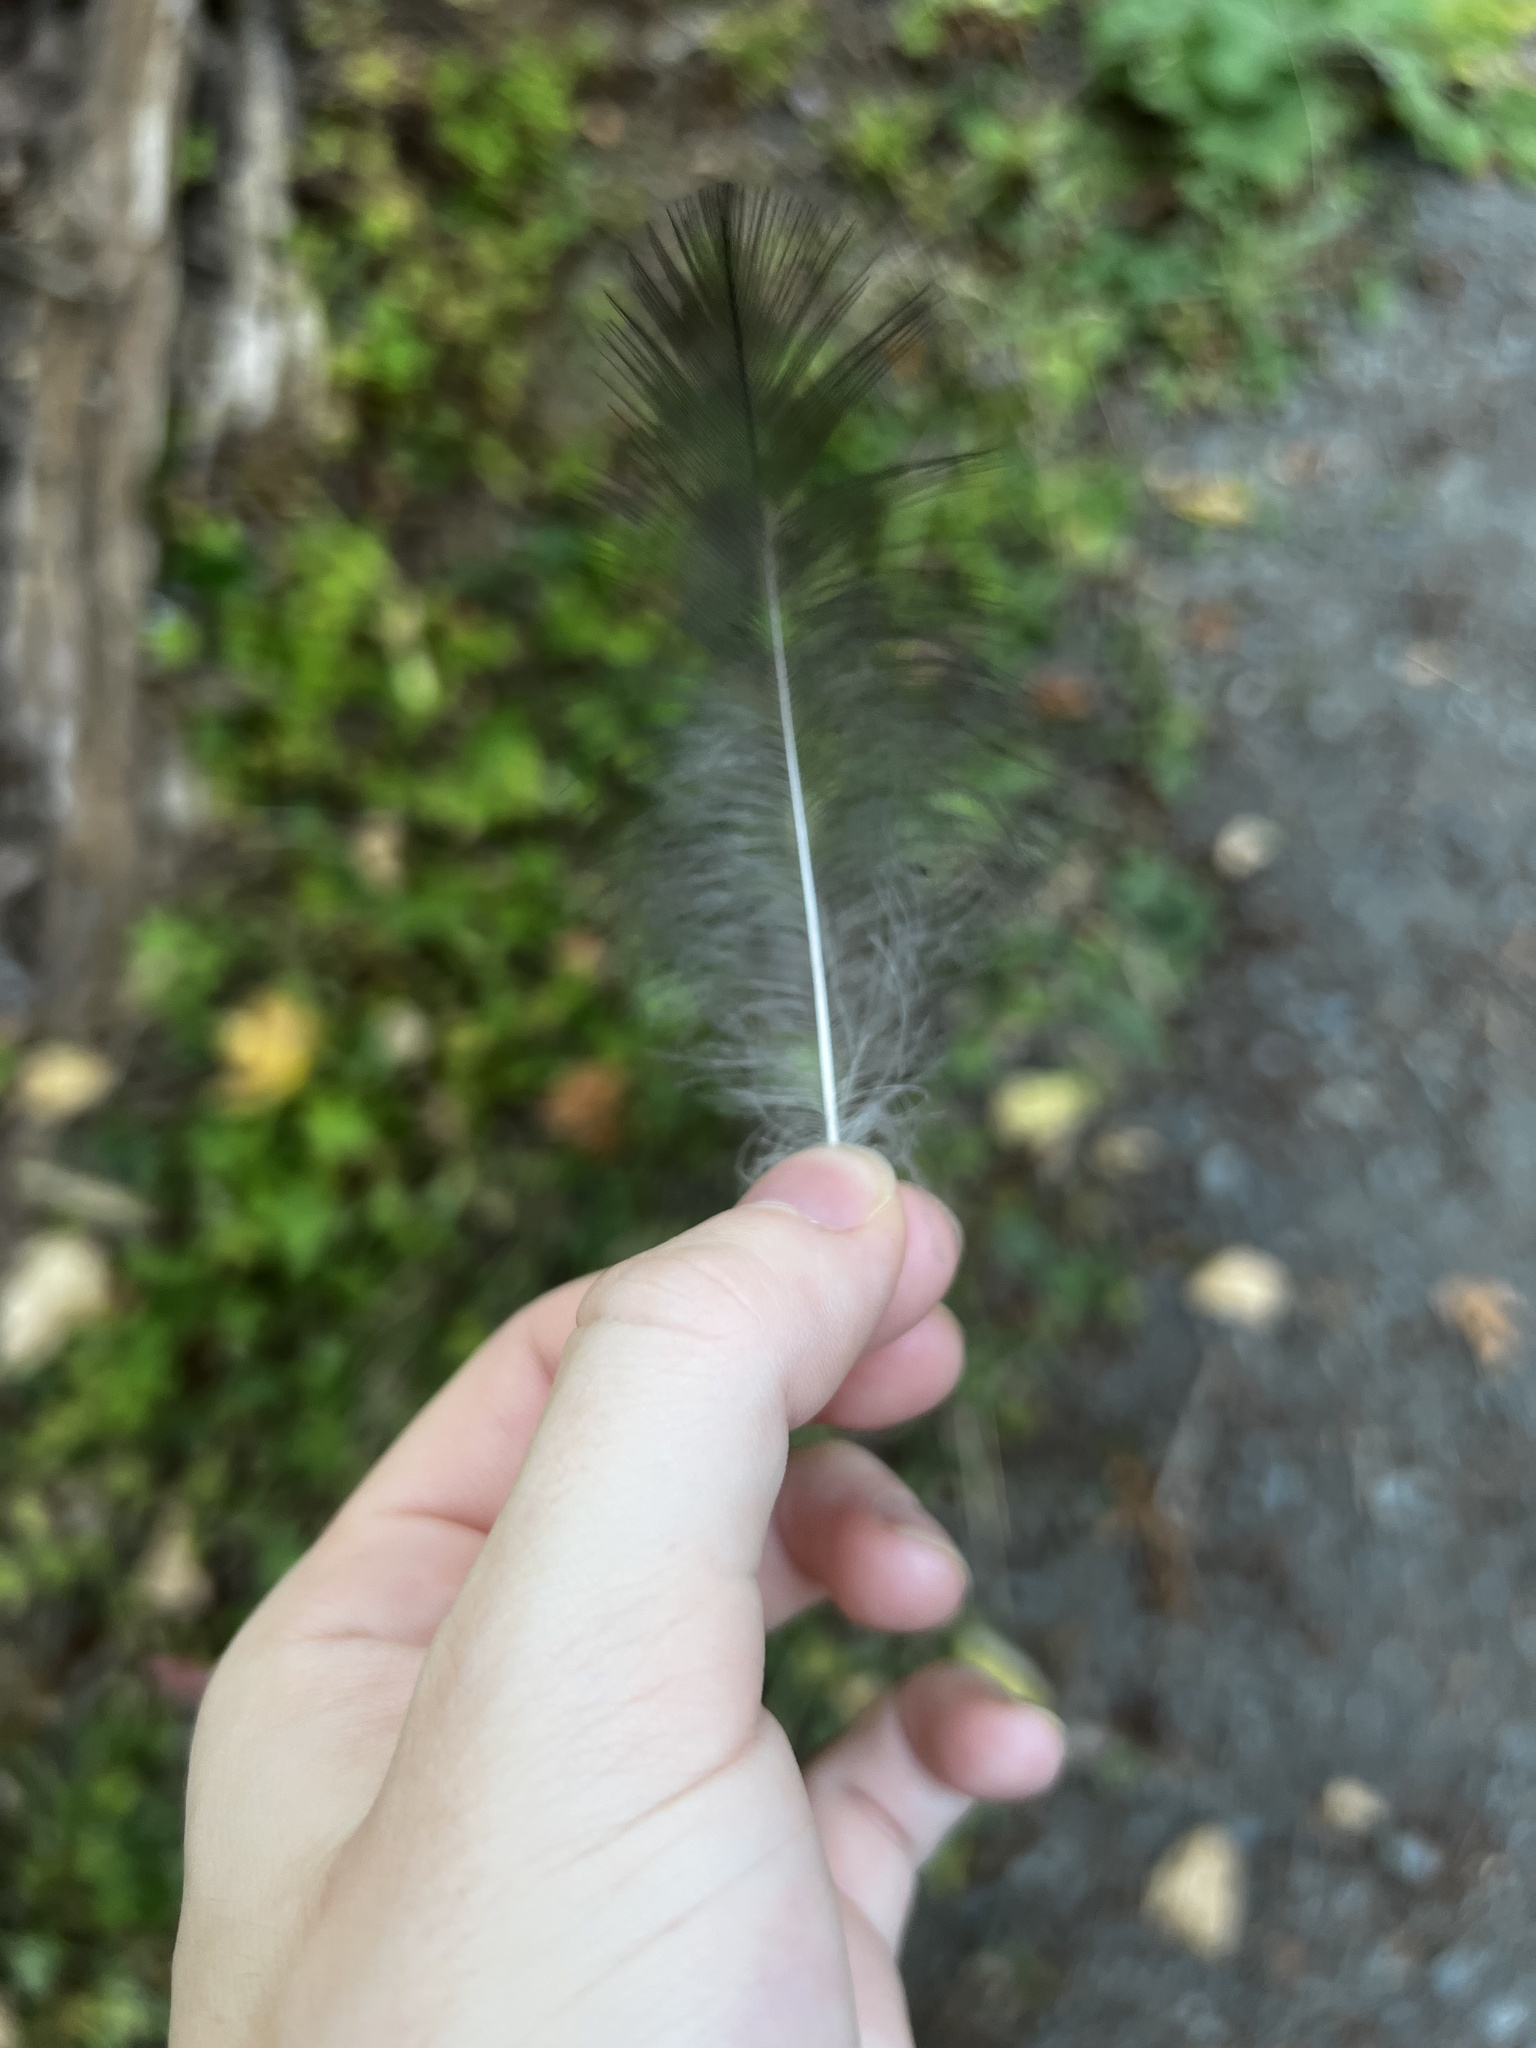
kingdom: Animalia
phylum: Chordata
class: Aves
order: Passeriformes
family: Corvidae
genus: Corvus
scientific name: Corvus corax
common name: Common raven
